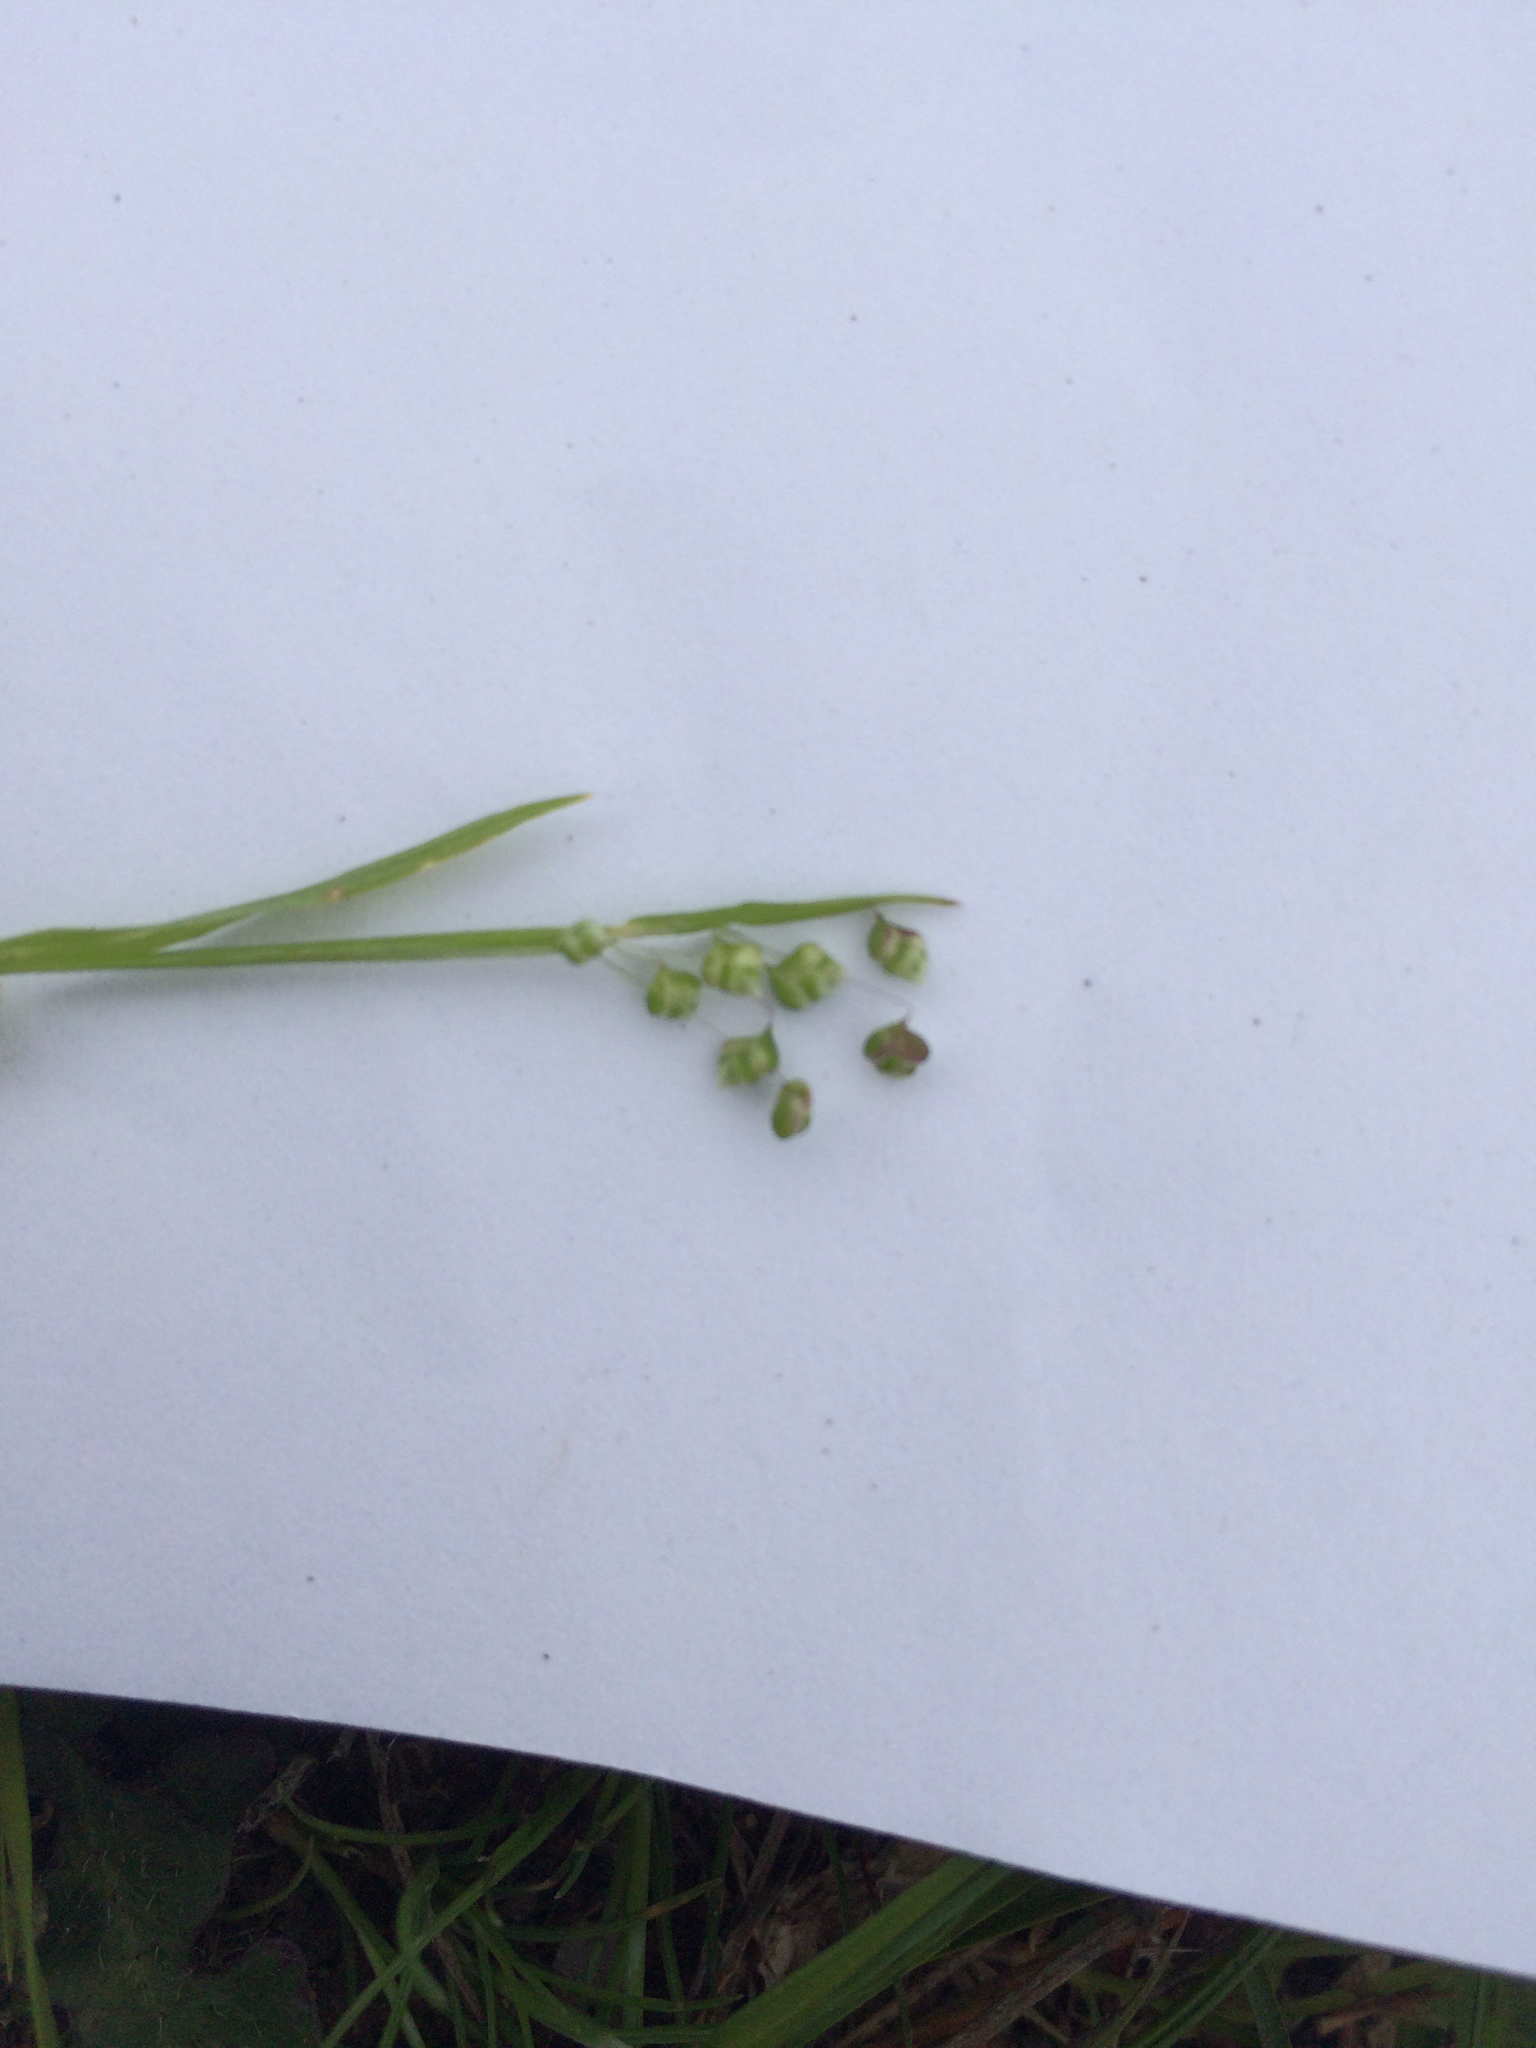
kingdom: Plantae
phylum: Tracheophyta
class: Liliopsida
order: Poales
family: Poaceae
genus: Briza
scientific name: Briza minor
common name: Lesser quaking-grass
